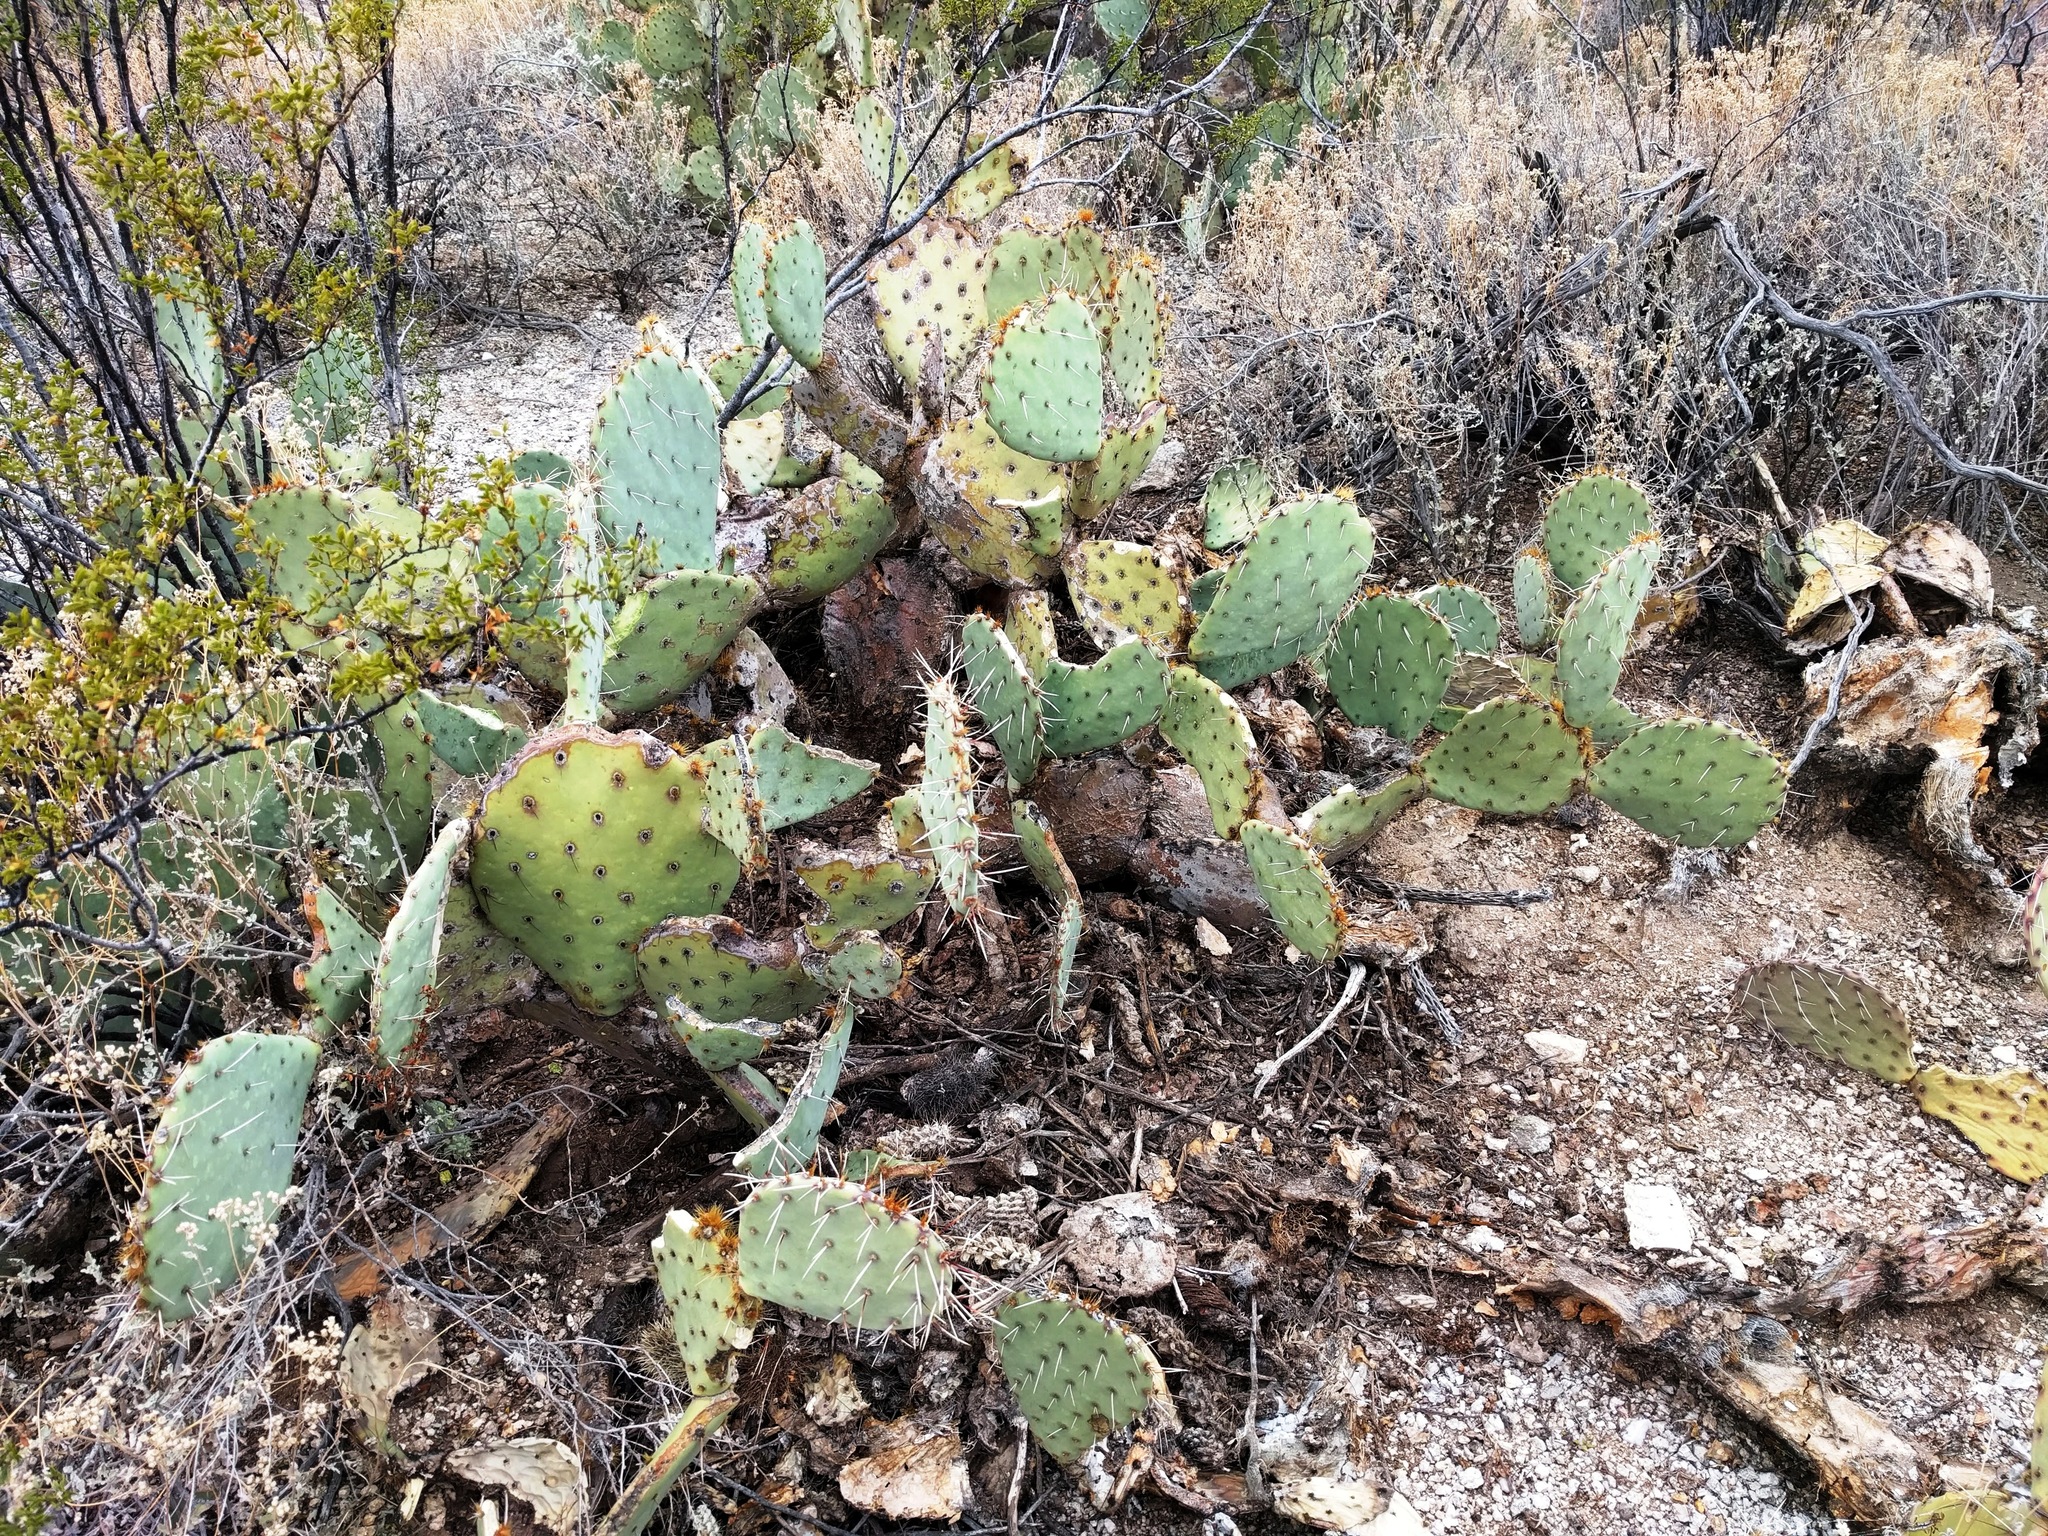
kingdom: Plantae
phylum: Tracheophyta
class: Magnoliopsida
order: Caryophyllales
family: Cactaceae
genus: Opuntia
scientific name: Opuntia engelmannii
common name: Cactus-apple
